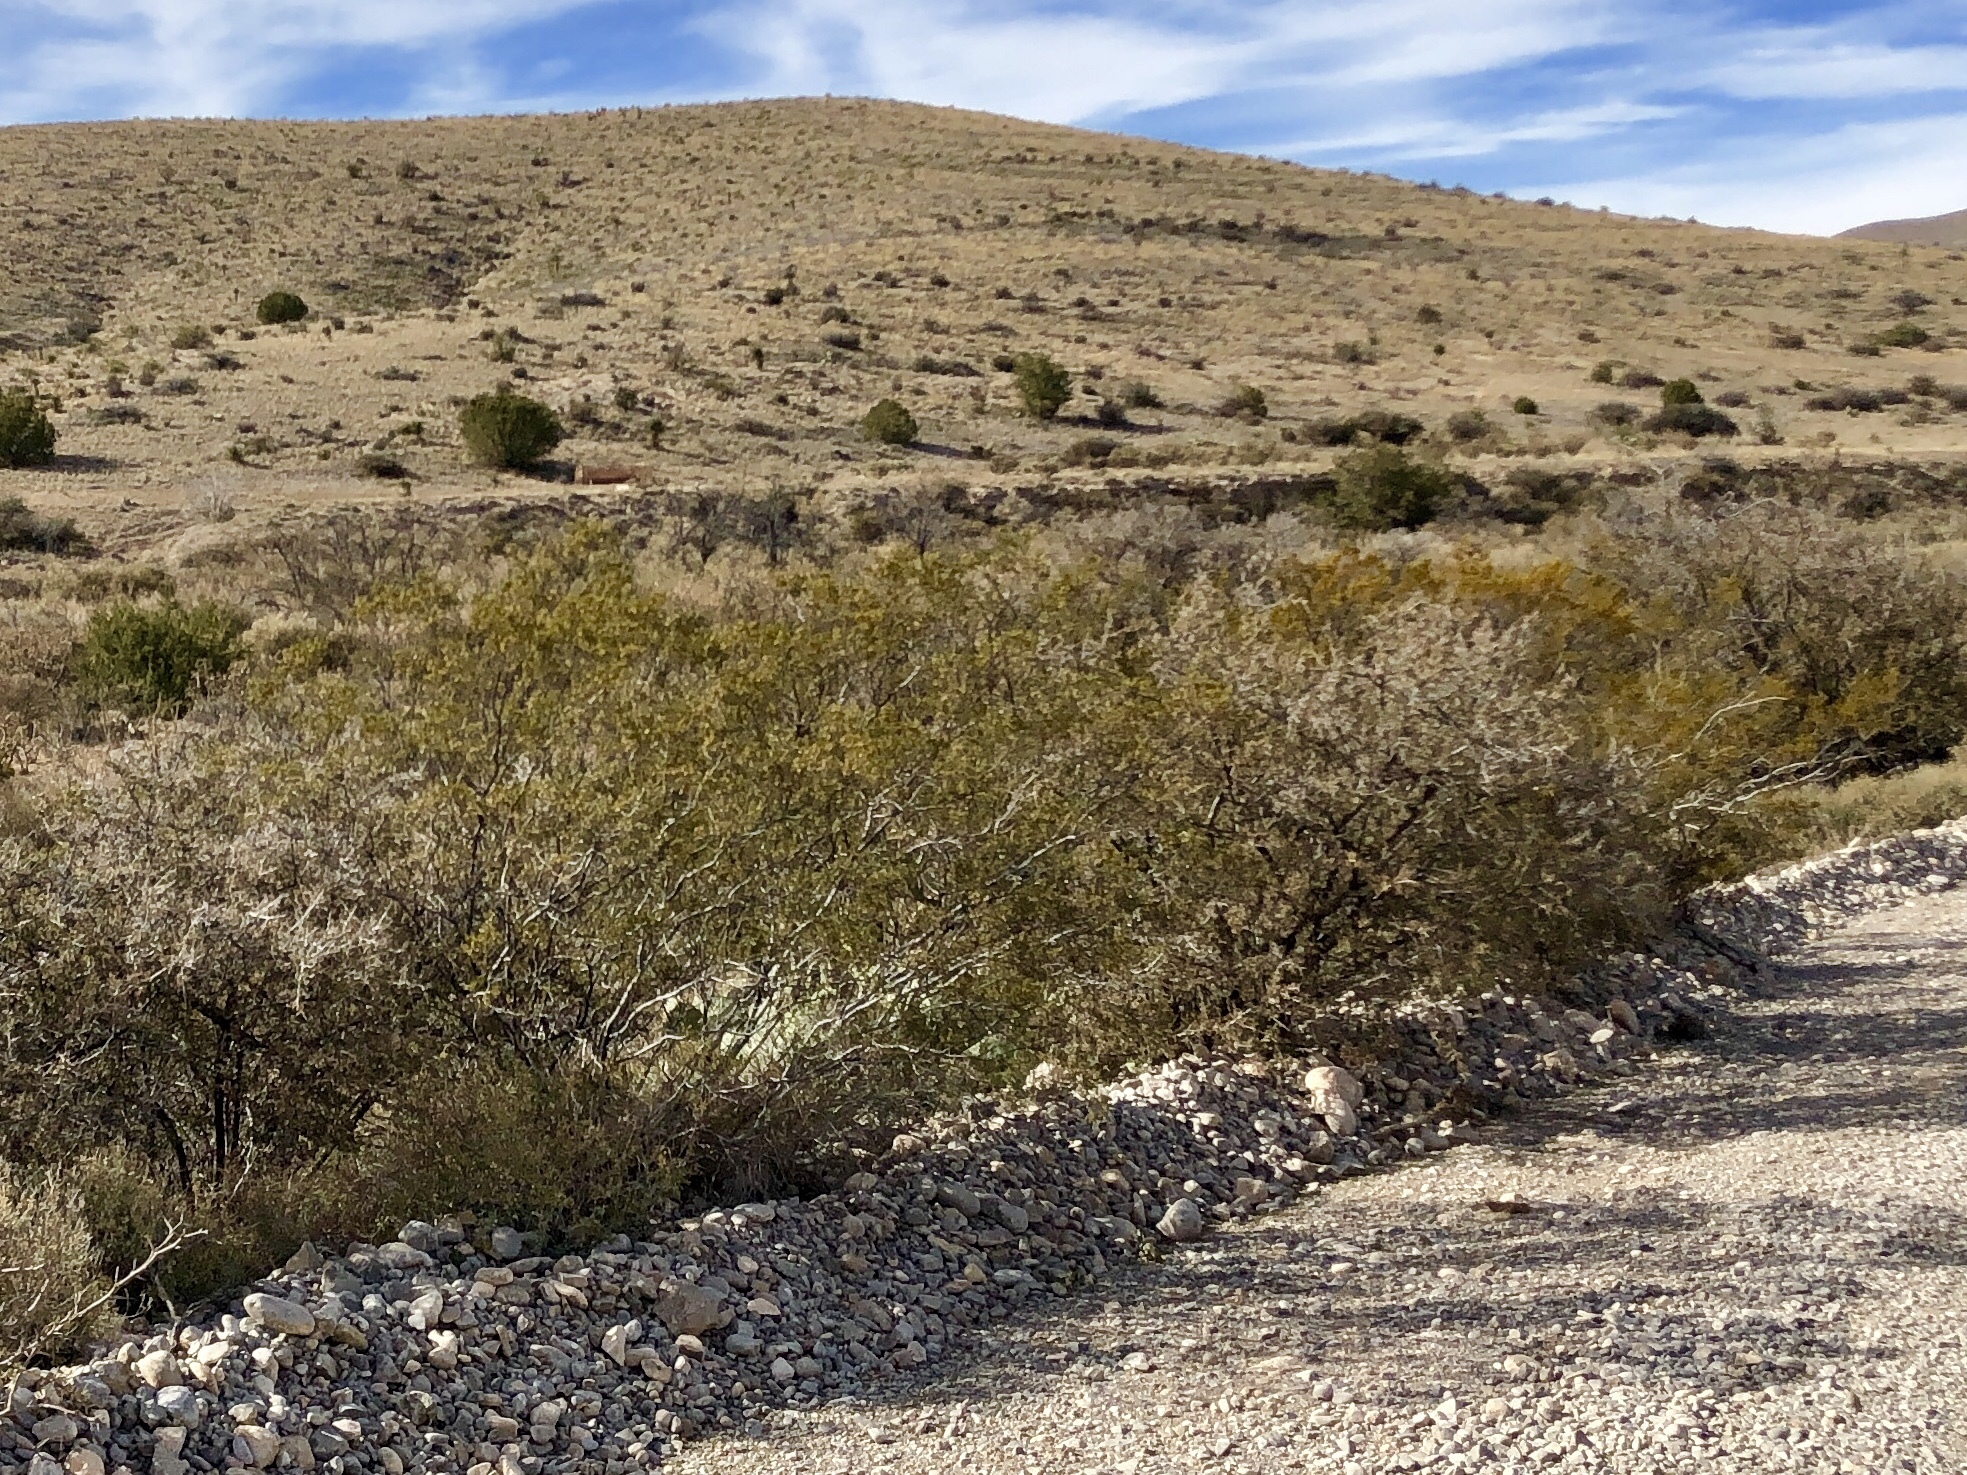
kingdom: Plantae
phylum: Tracheophyta
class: Magnoliopsida
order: Zygophyllales
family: Zygophyllaceae
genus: Larrea
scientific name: Larrea tridentata
